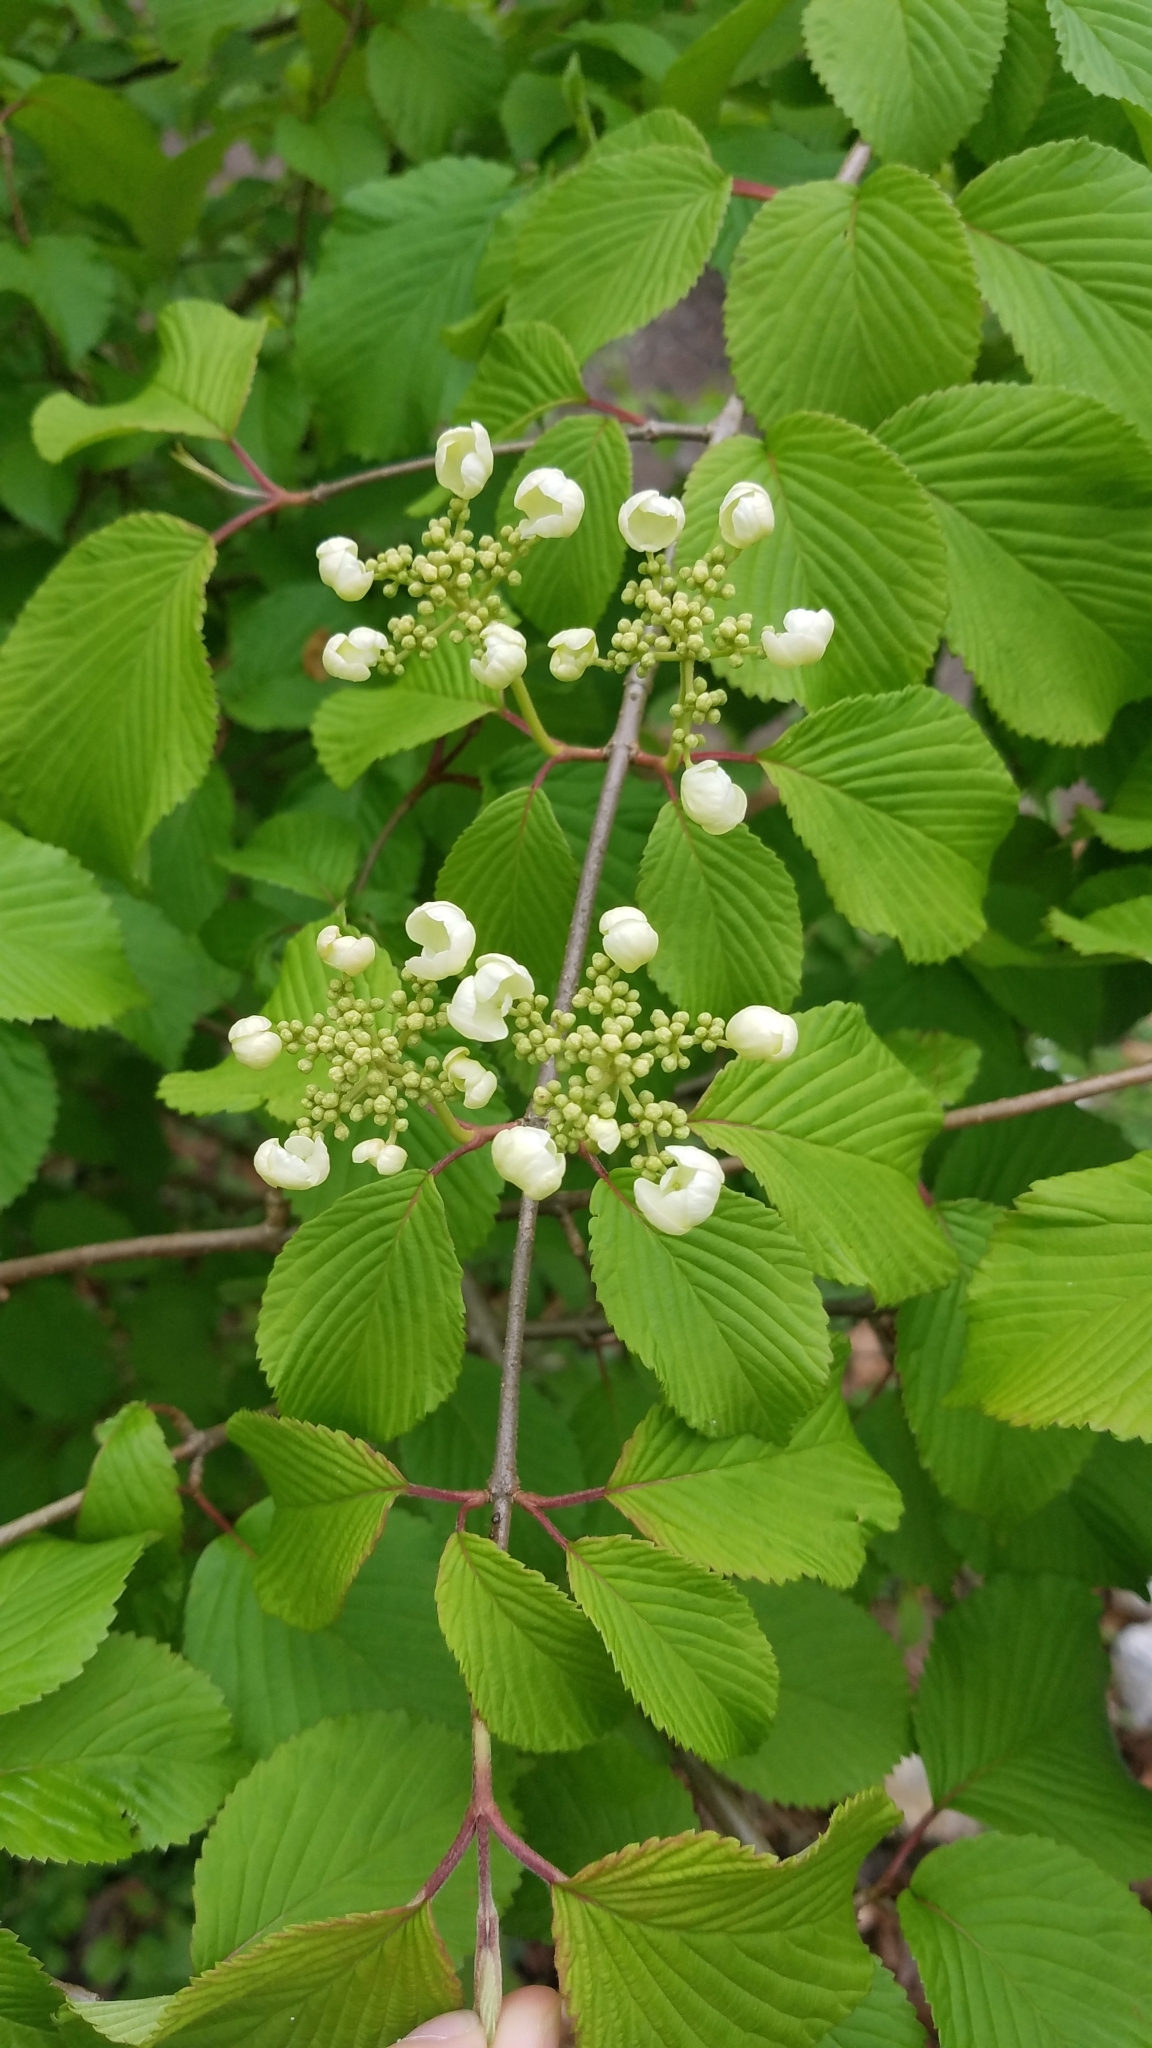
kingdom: Plantae
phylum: Tracheophyta
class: Magnoliopsida
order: Dipsacales
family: Viburnaceae
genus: Viburnum
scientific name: Viburnum plicatum
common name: Japanese snowball
